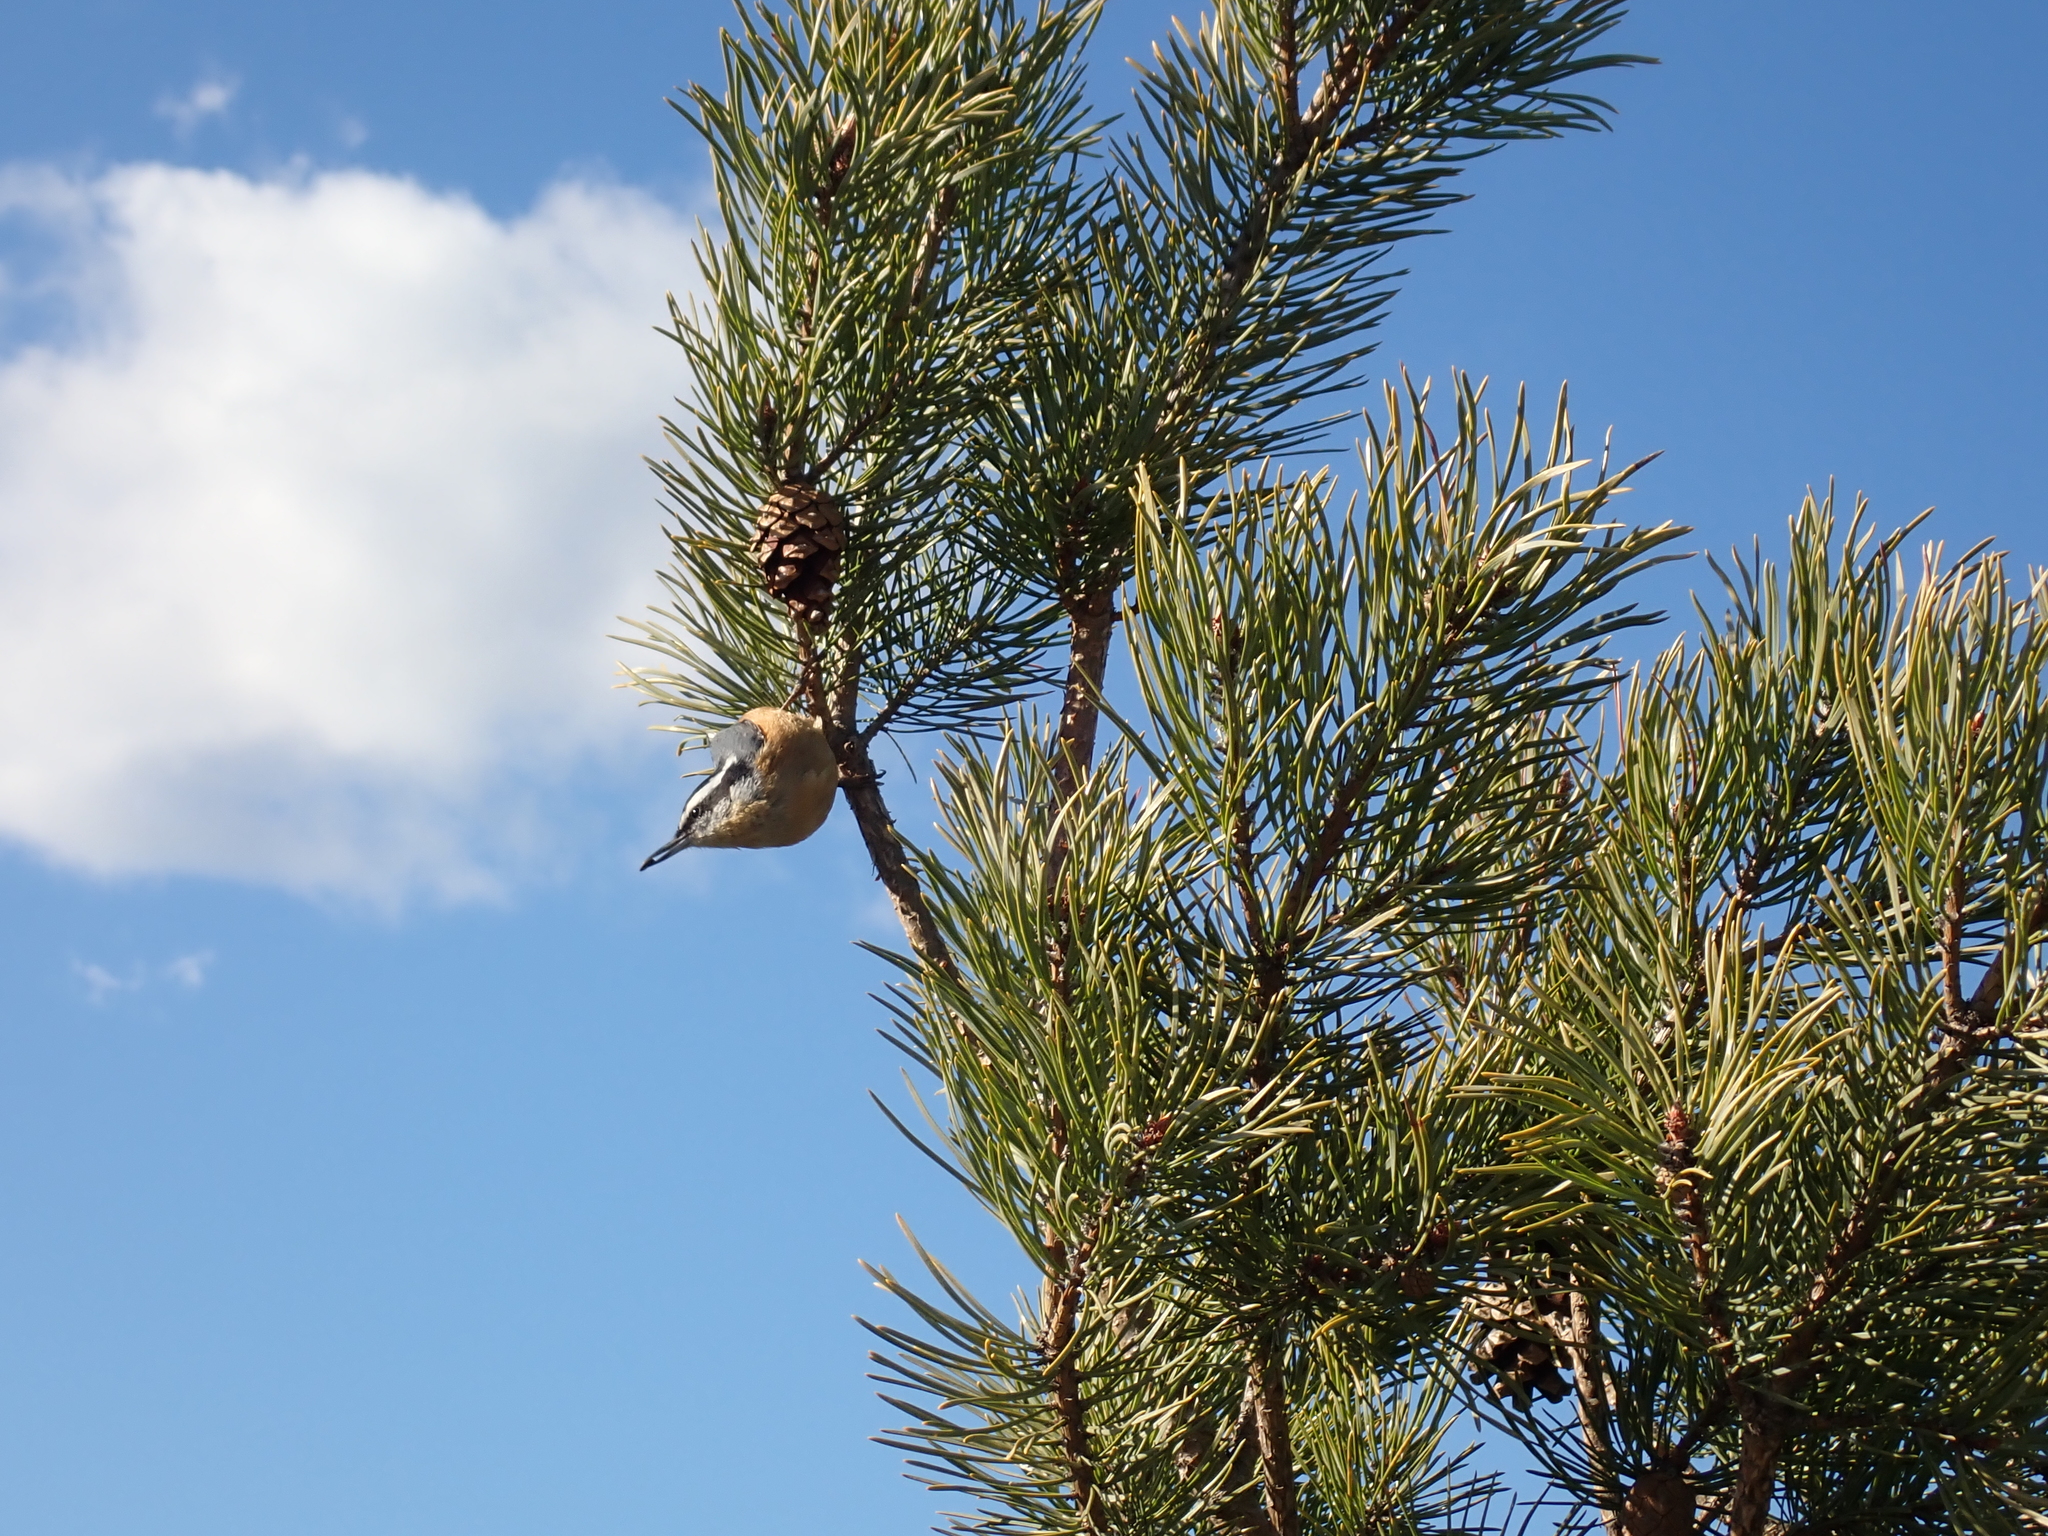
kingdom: Animalia
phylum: Chordata
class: Aves
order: Passeriformes
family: Sittidae
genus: Sitta
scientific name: Sitta canadensis
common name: Red-breasted nuthatch
